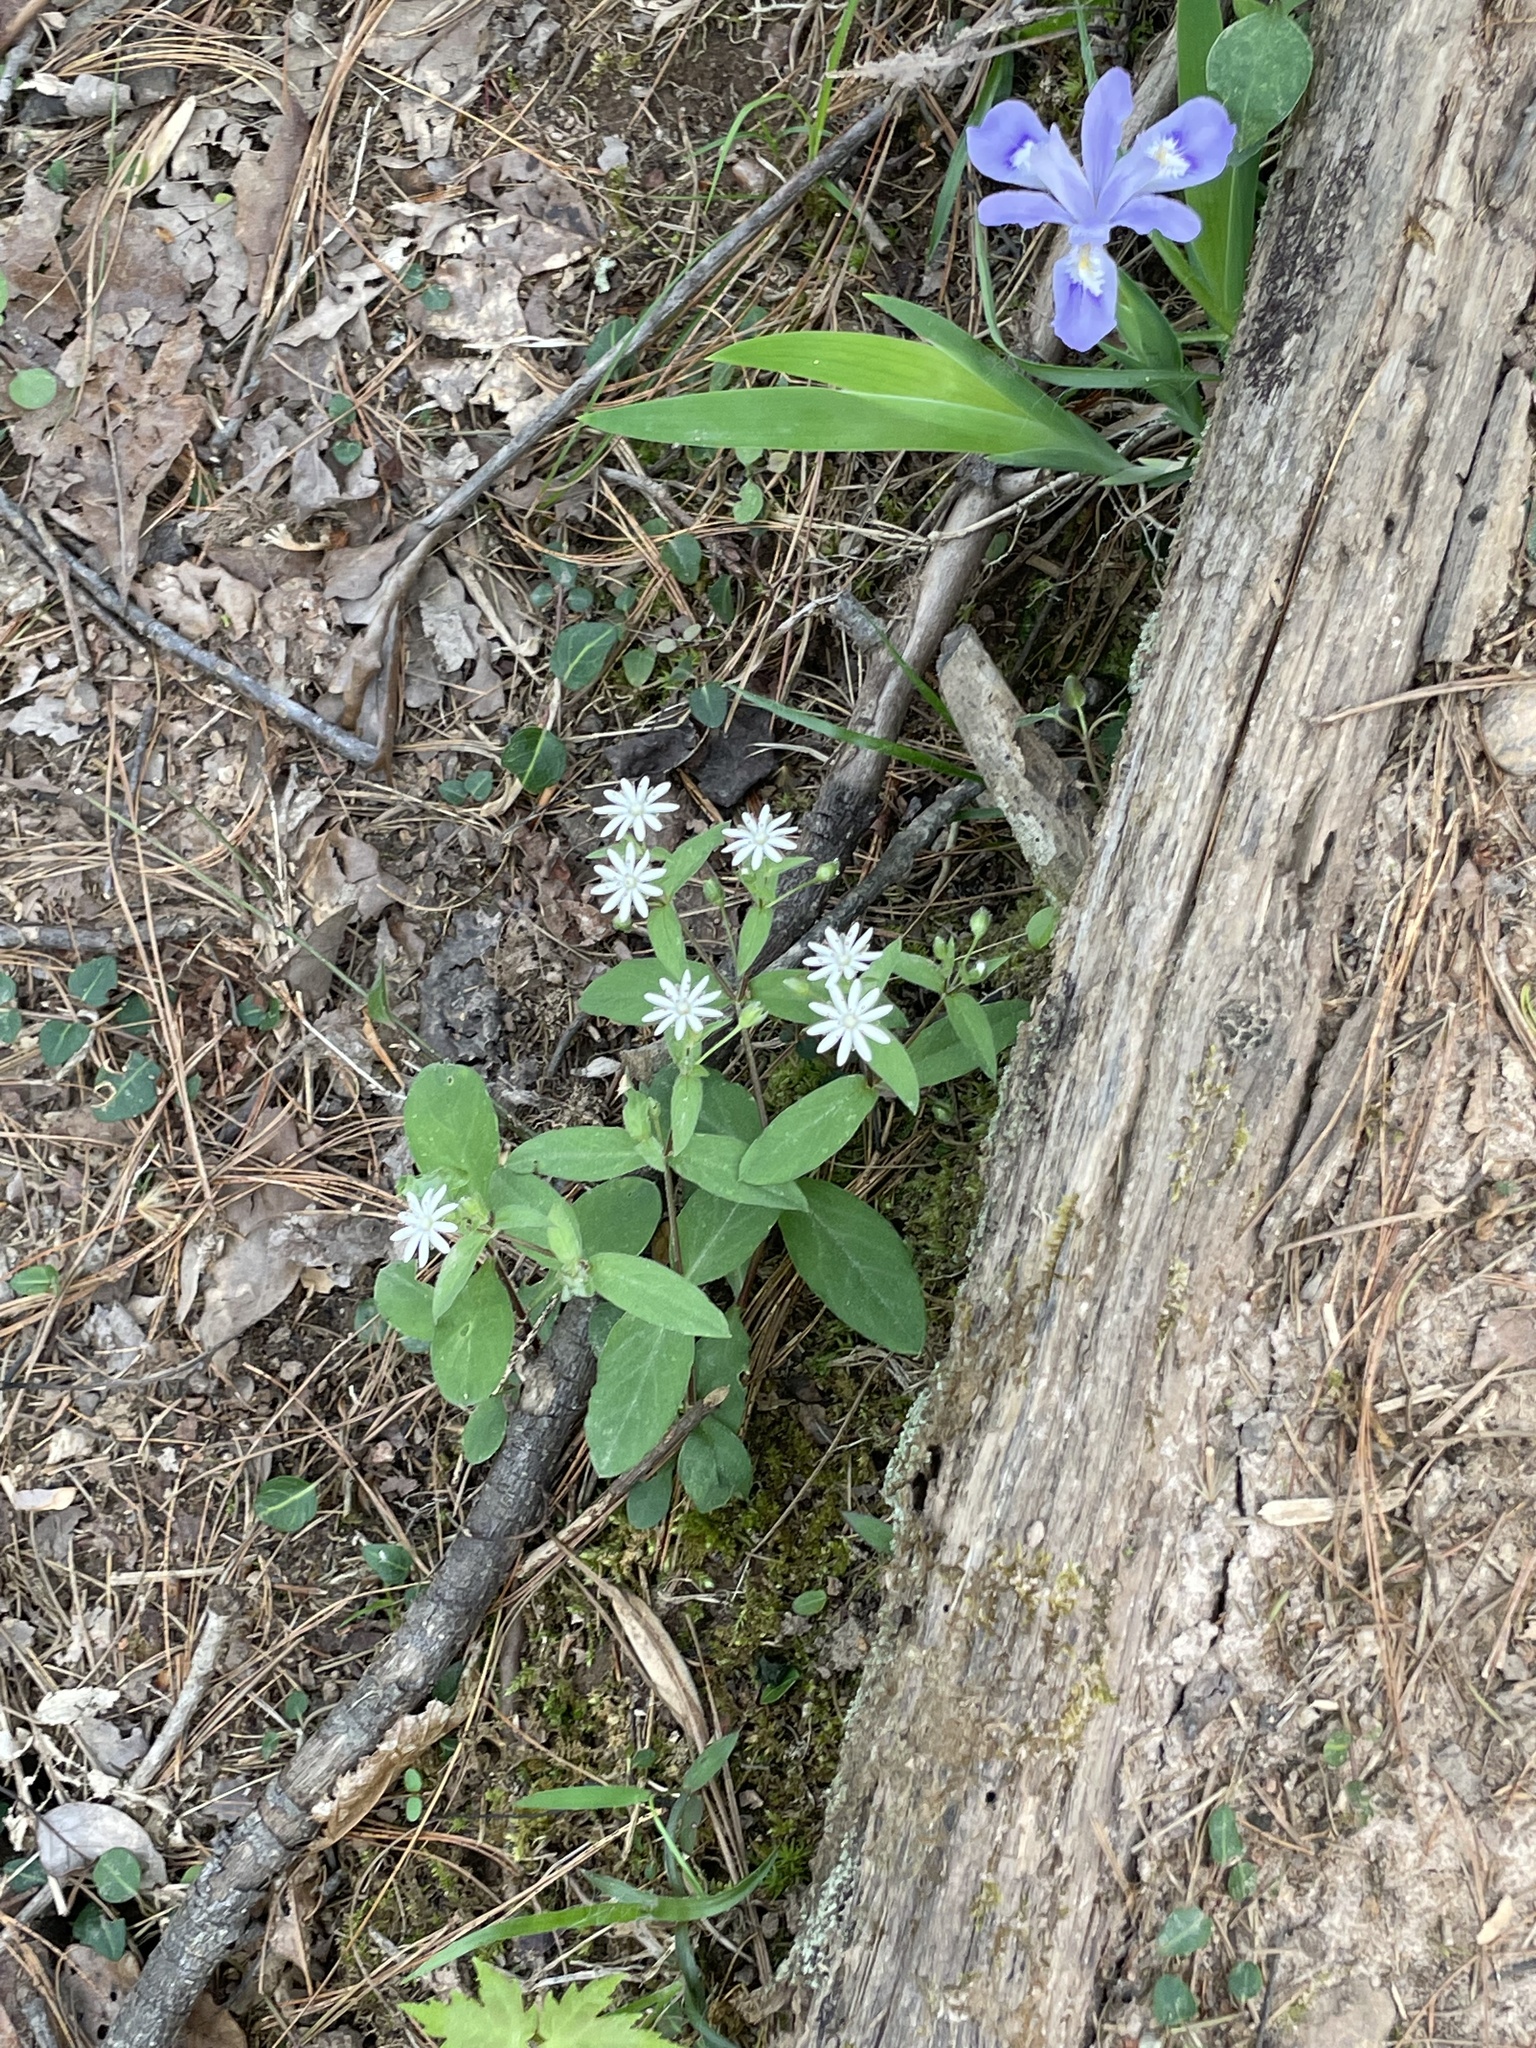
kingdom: Plantae
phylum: Tracheophyta
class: Magnoliopsida
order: Caryophyllales
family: Caryophyllaceae
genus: Stellaria
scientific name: Stellaria pubera
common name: Star chickweed
